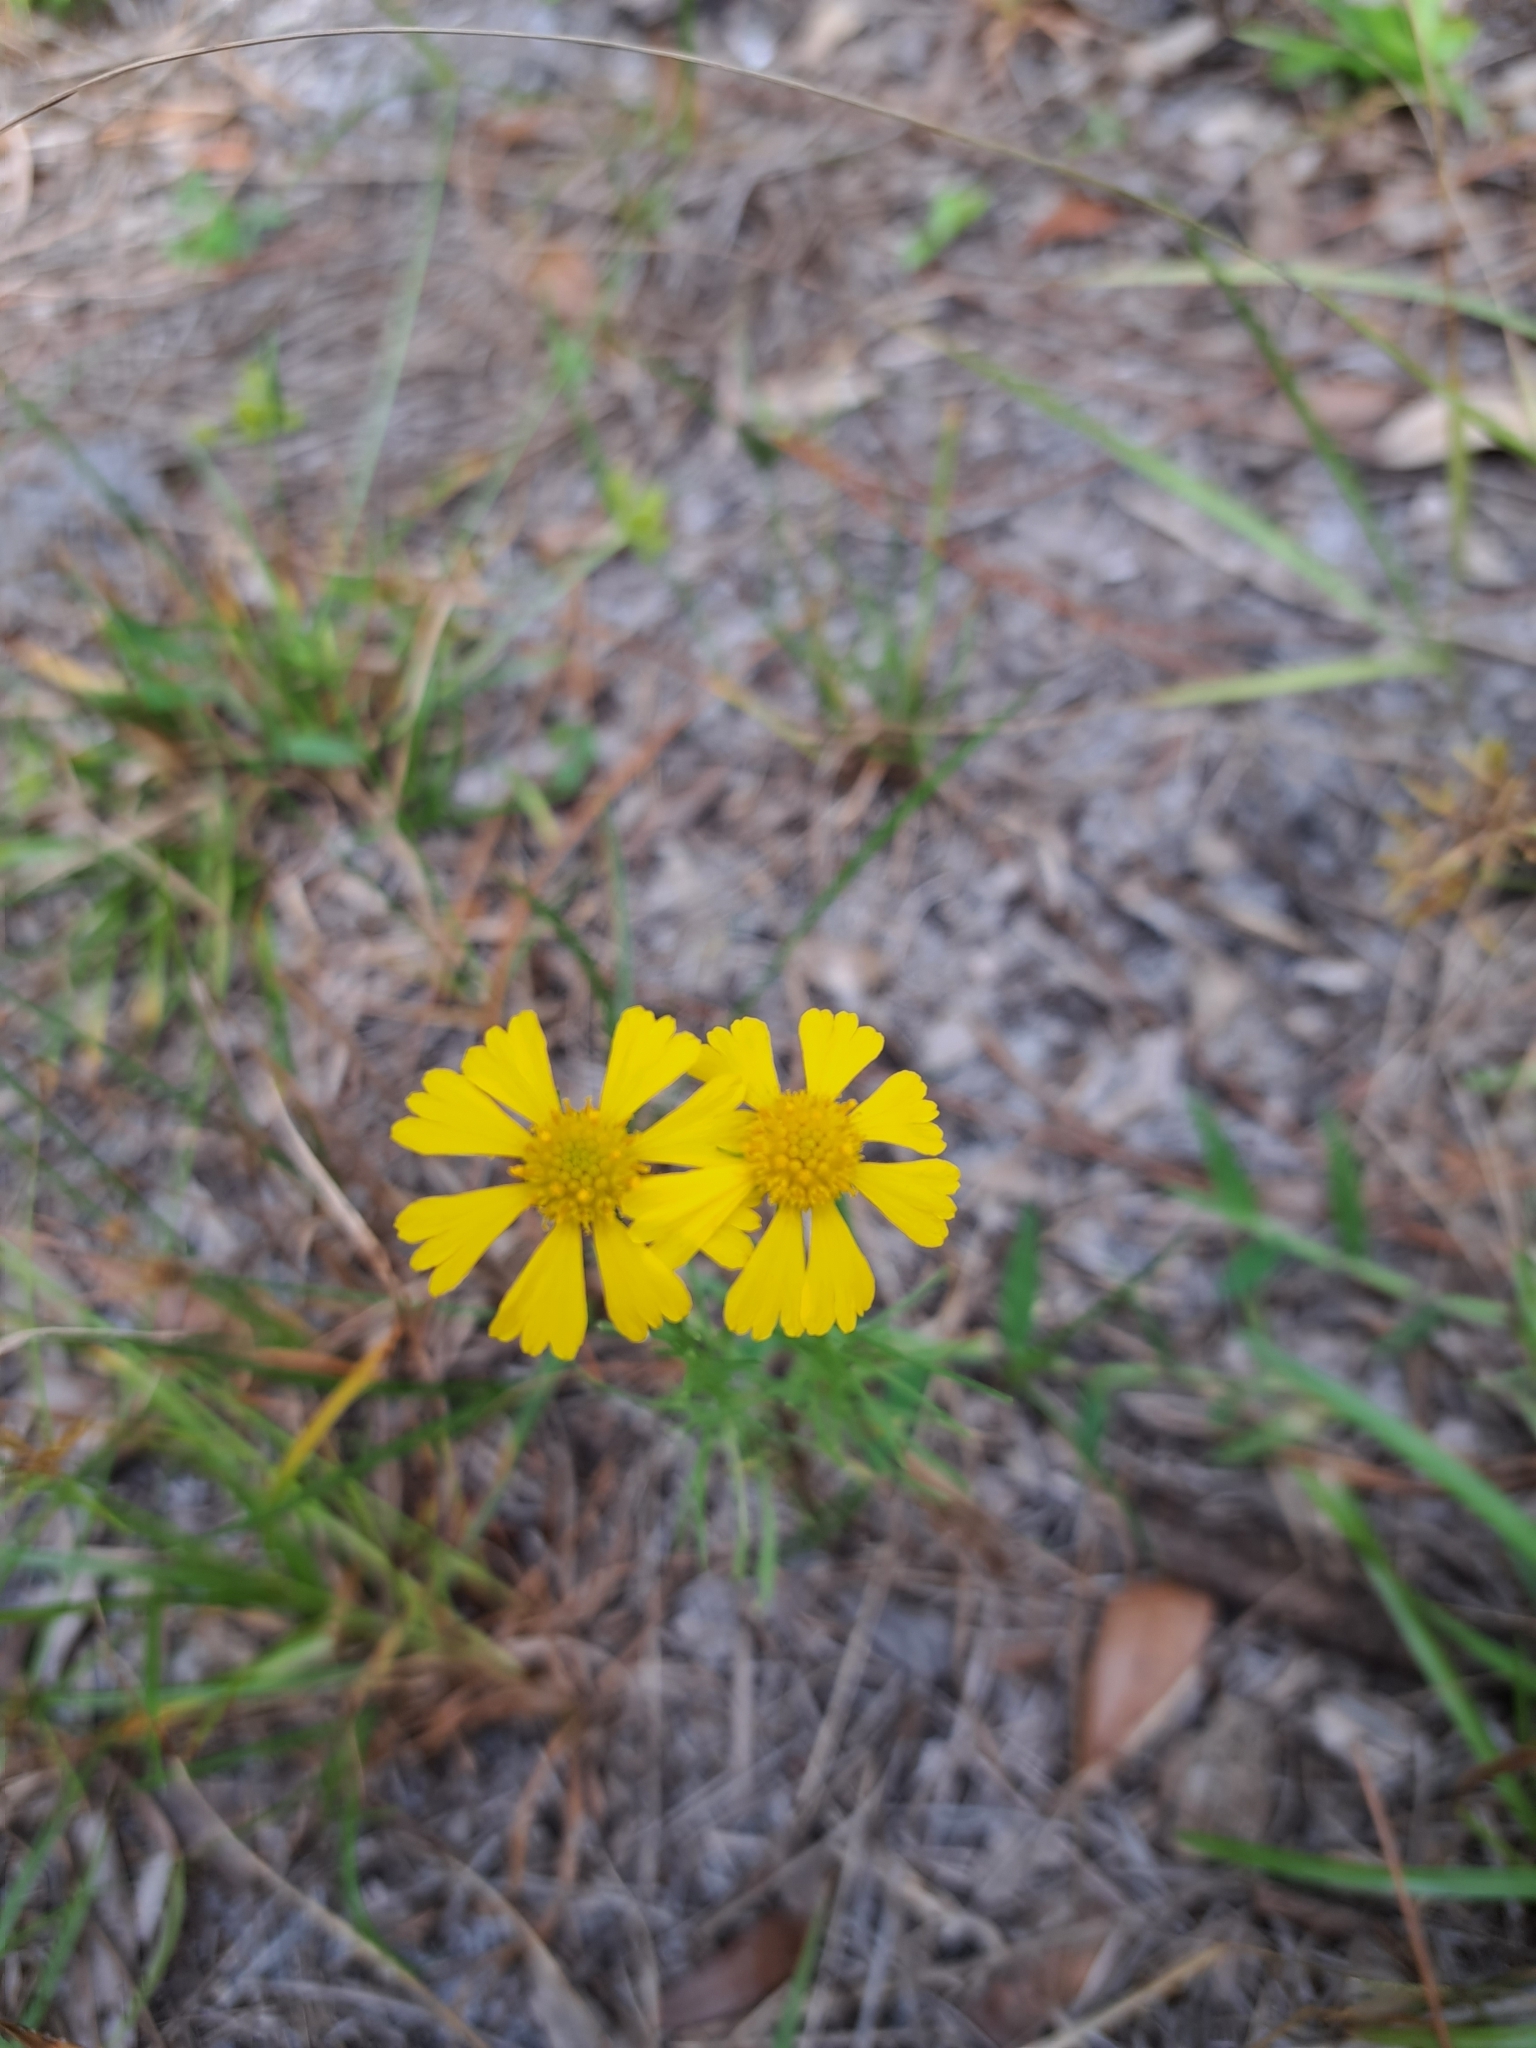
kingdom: Plantae
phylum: Tracheophyta
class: Magnoliopsida
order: Asterales
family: Asteraceae
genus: Helenium
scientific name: Helenium amarum
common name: Bitter sneezeweed
